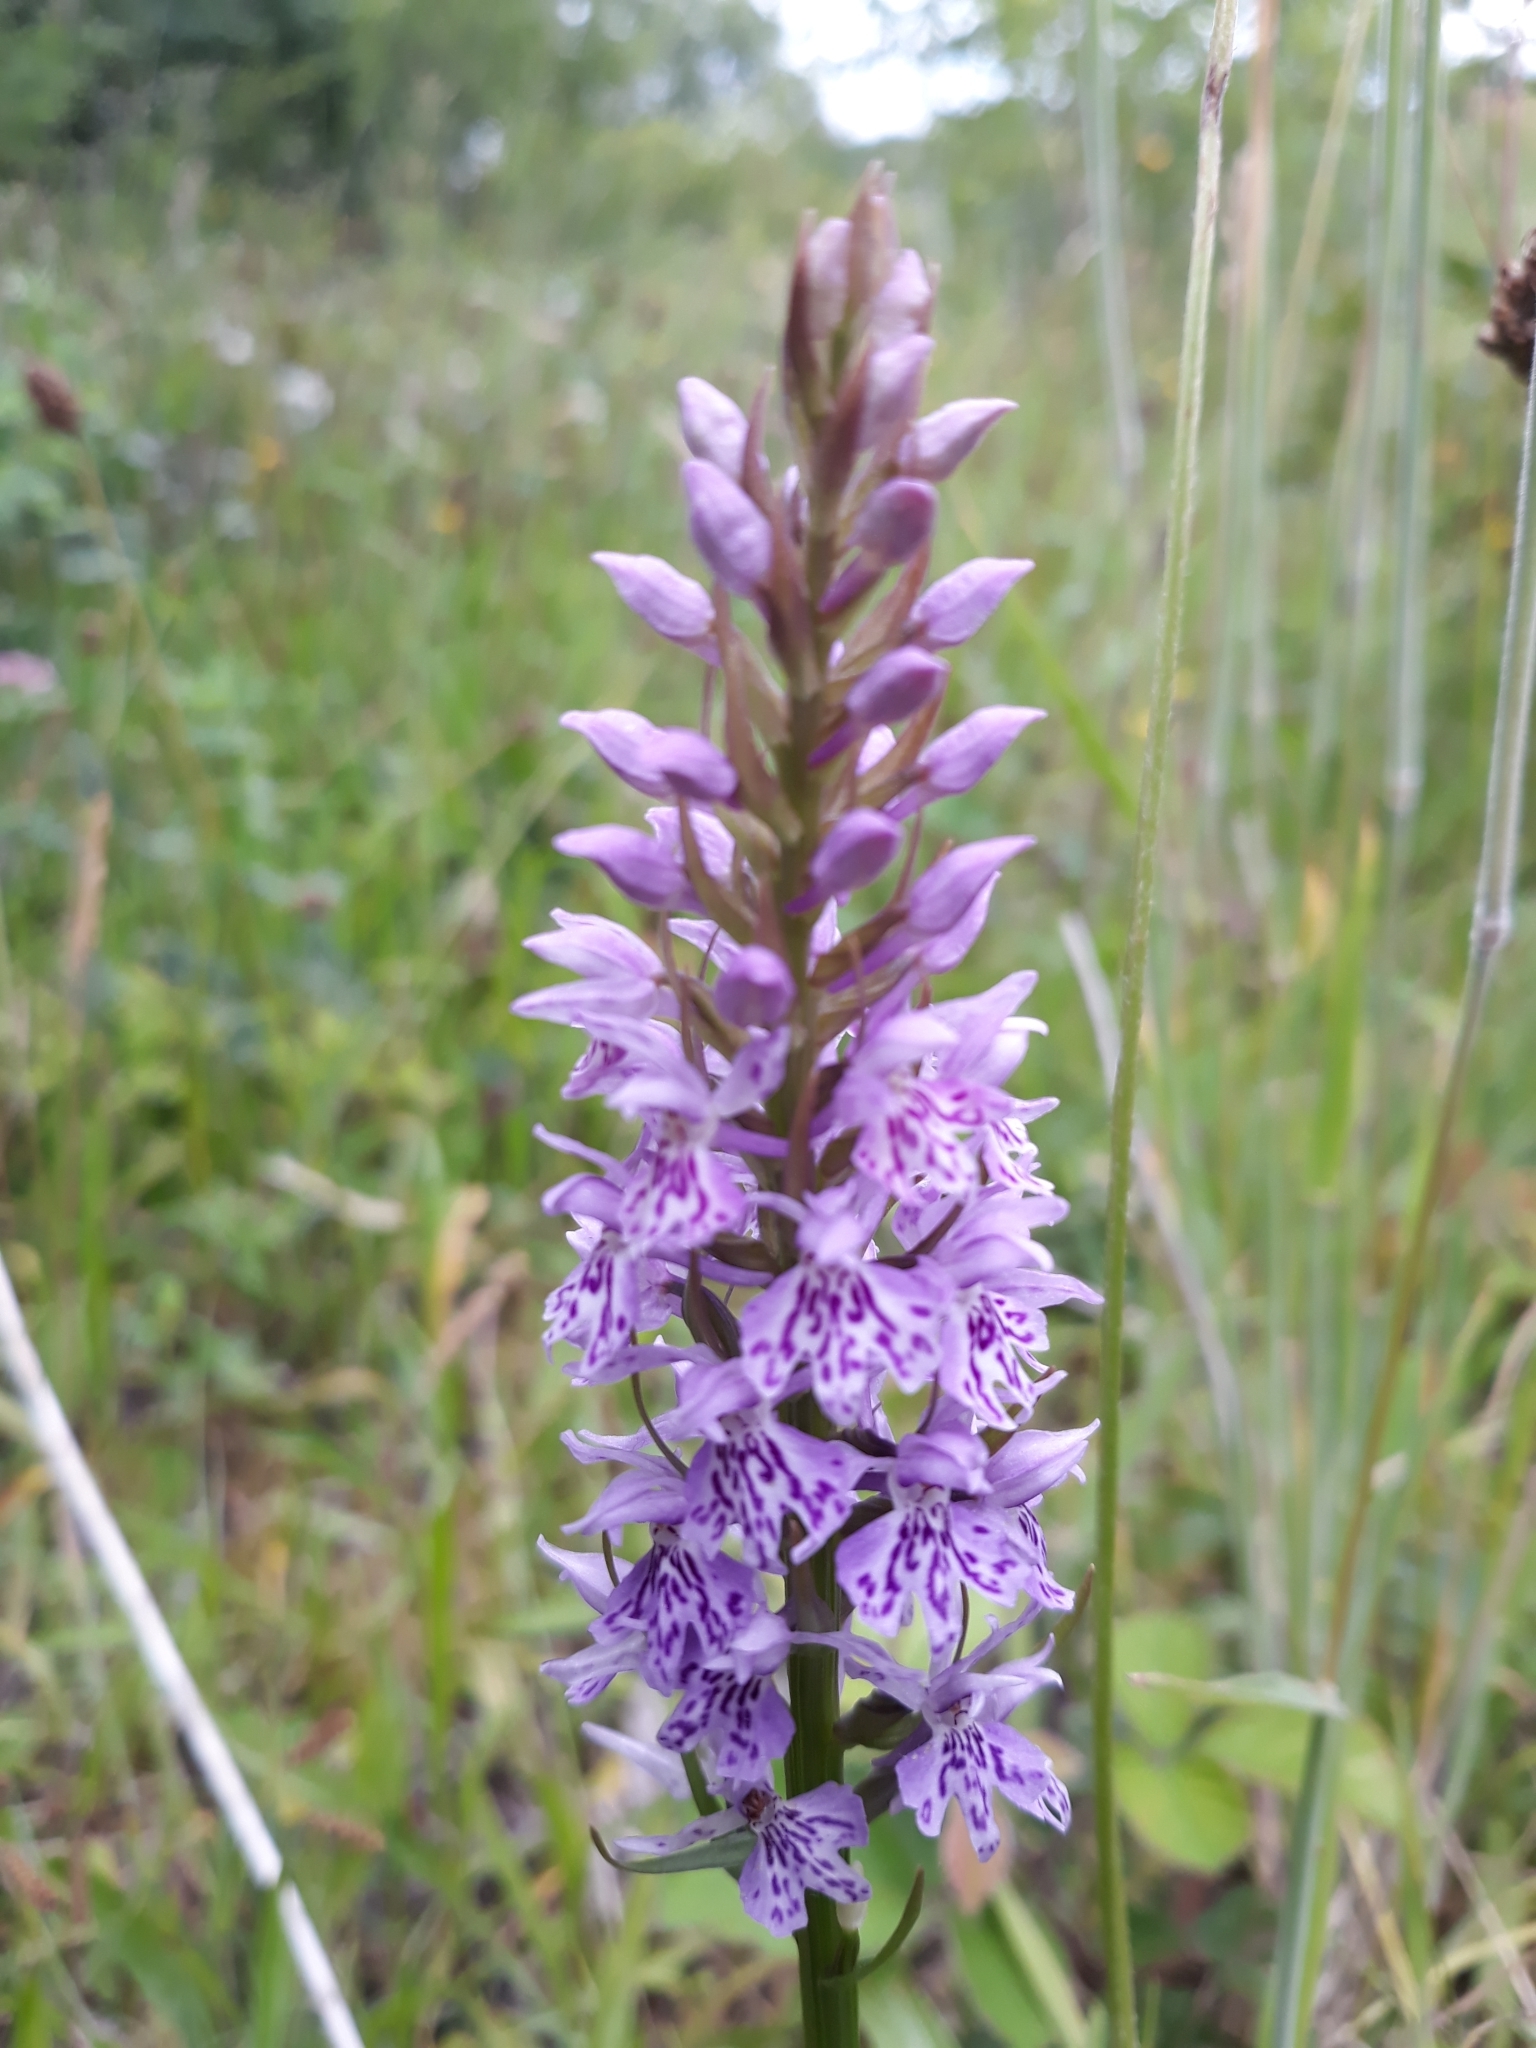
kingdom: Plantae
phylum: Tracheophyta
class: Liliopsida
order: Asparagales
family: Orchidaceae
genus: Dactylorhiza
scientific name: Dactylorhiza maculata
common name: Heath spotted-orchid
